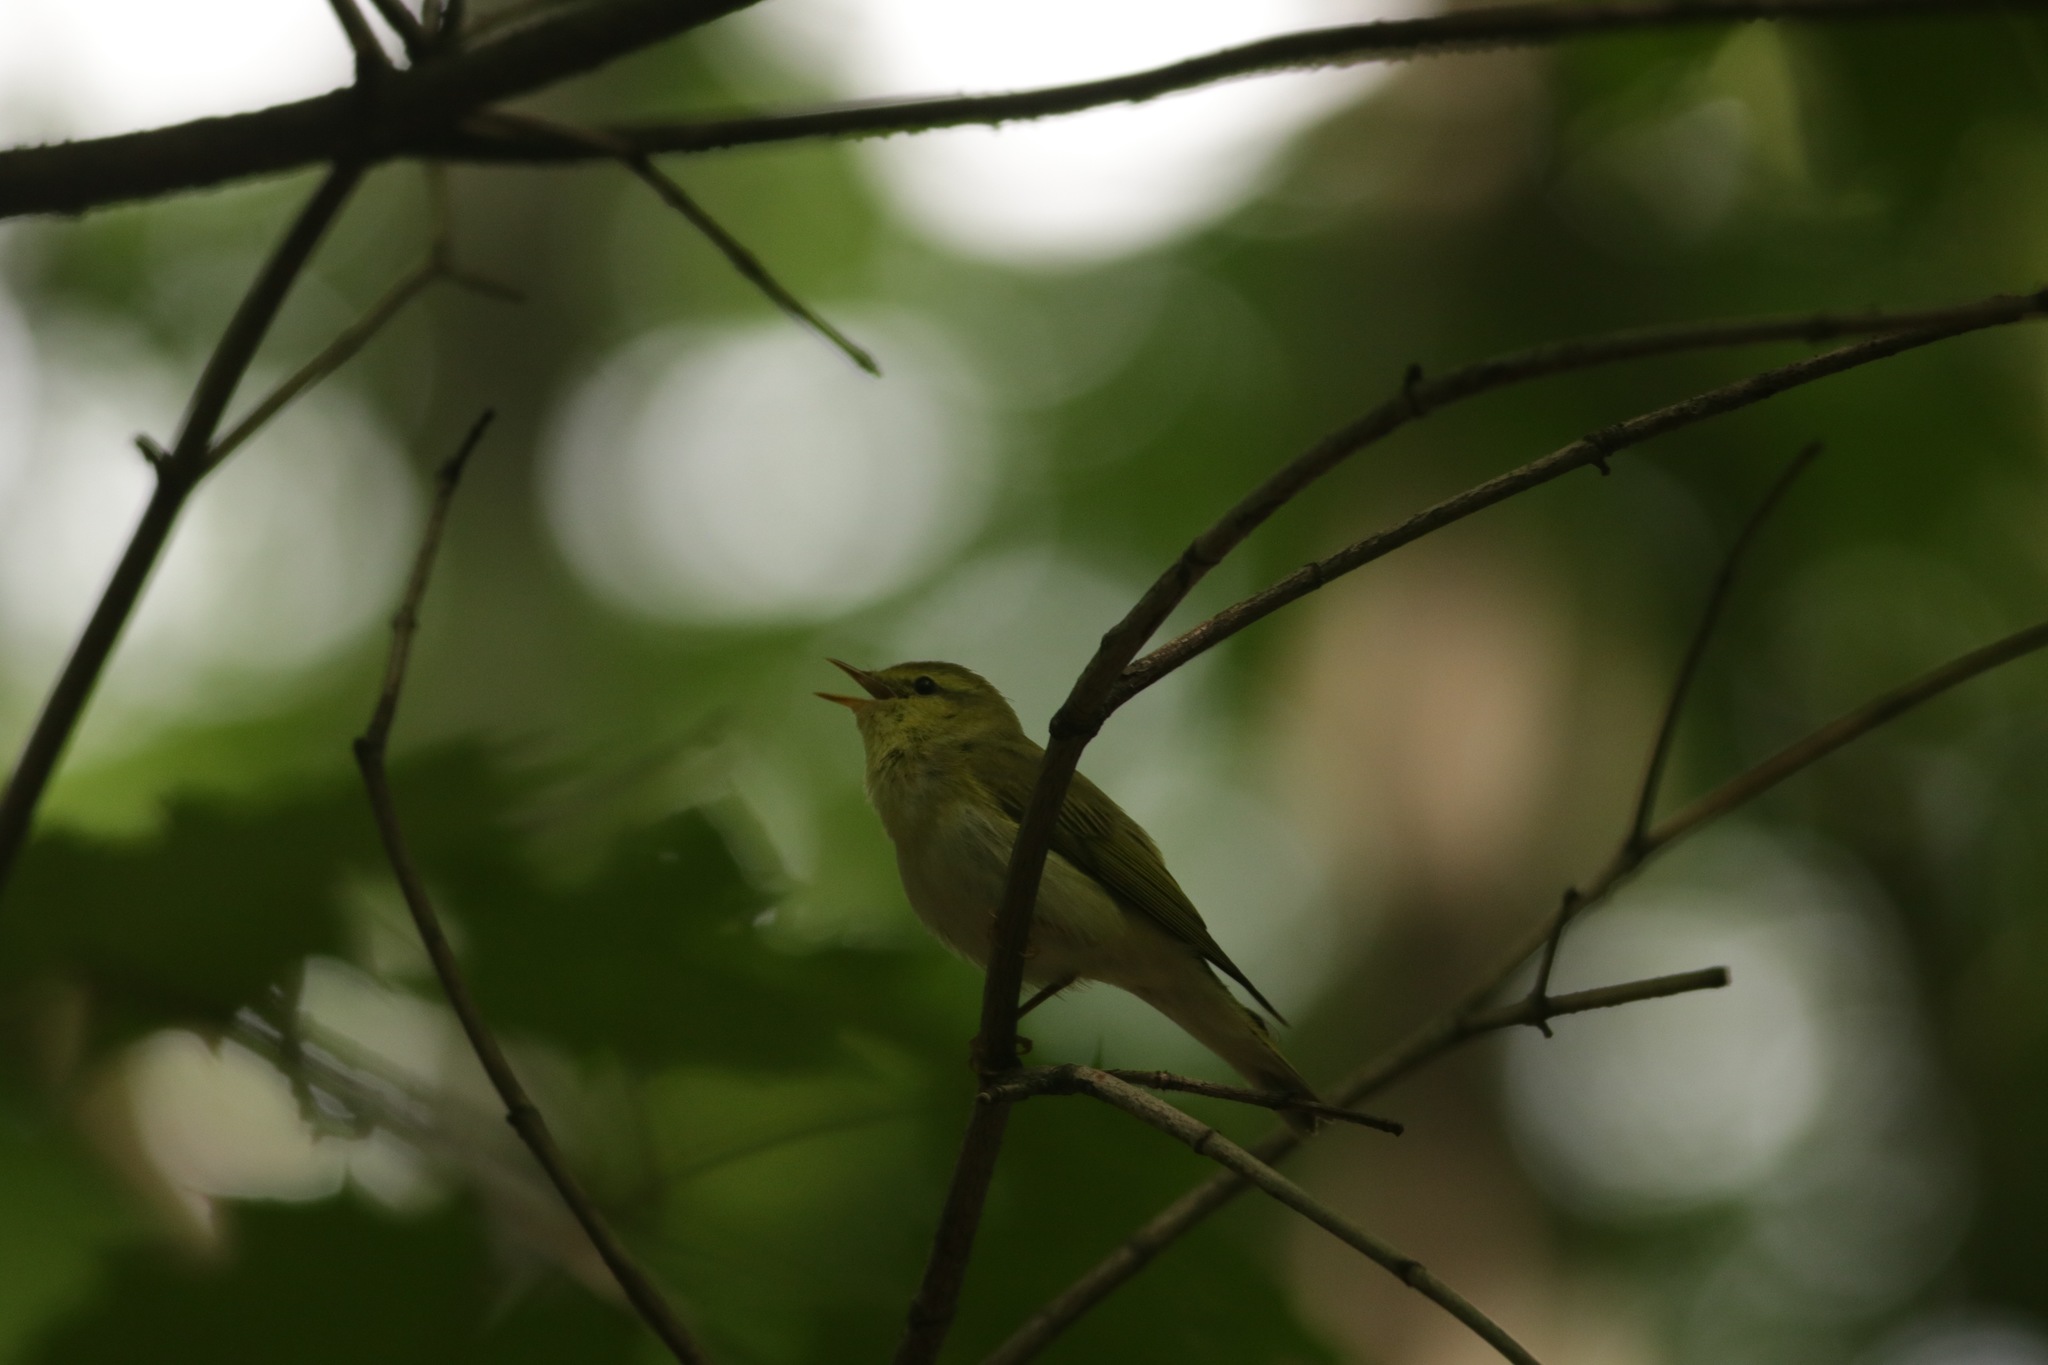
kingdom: Animalia
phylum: Chordata
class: Aves
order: Passeriformes
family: Phylloscopidae
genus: Phylloscopus
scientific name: Phylloscopus trochilus
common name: Willow warbler
